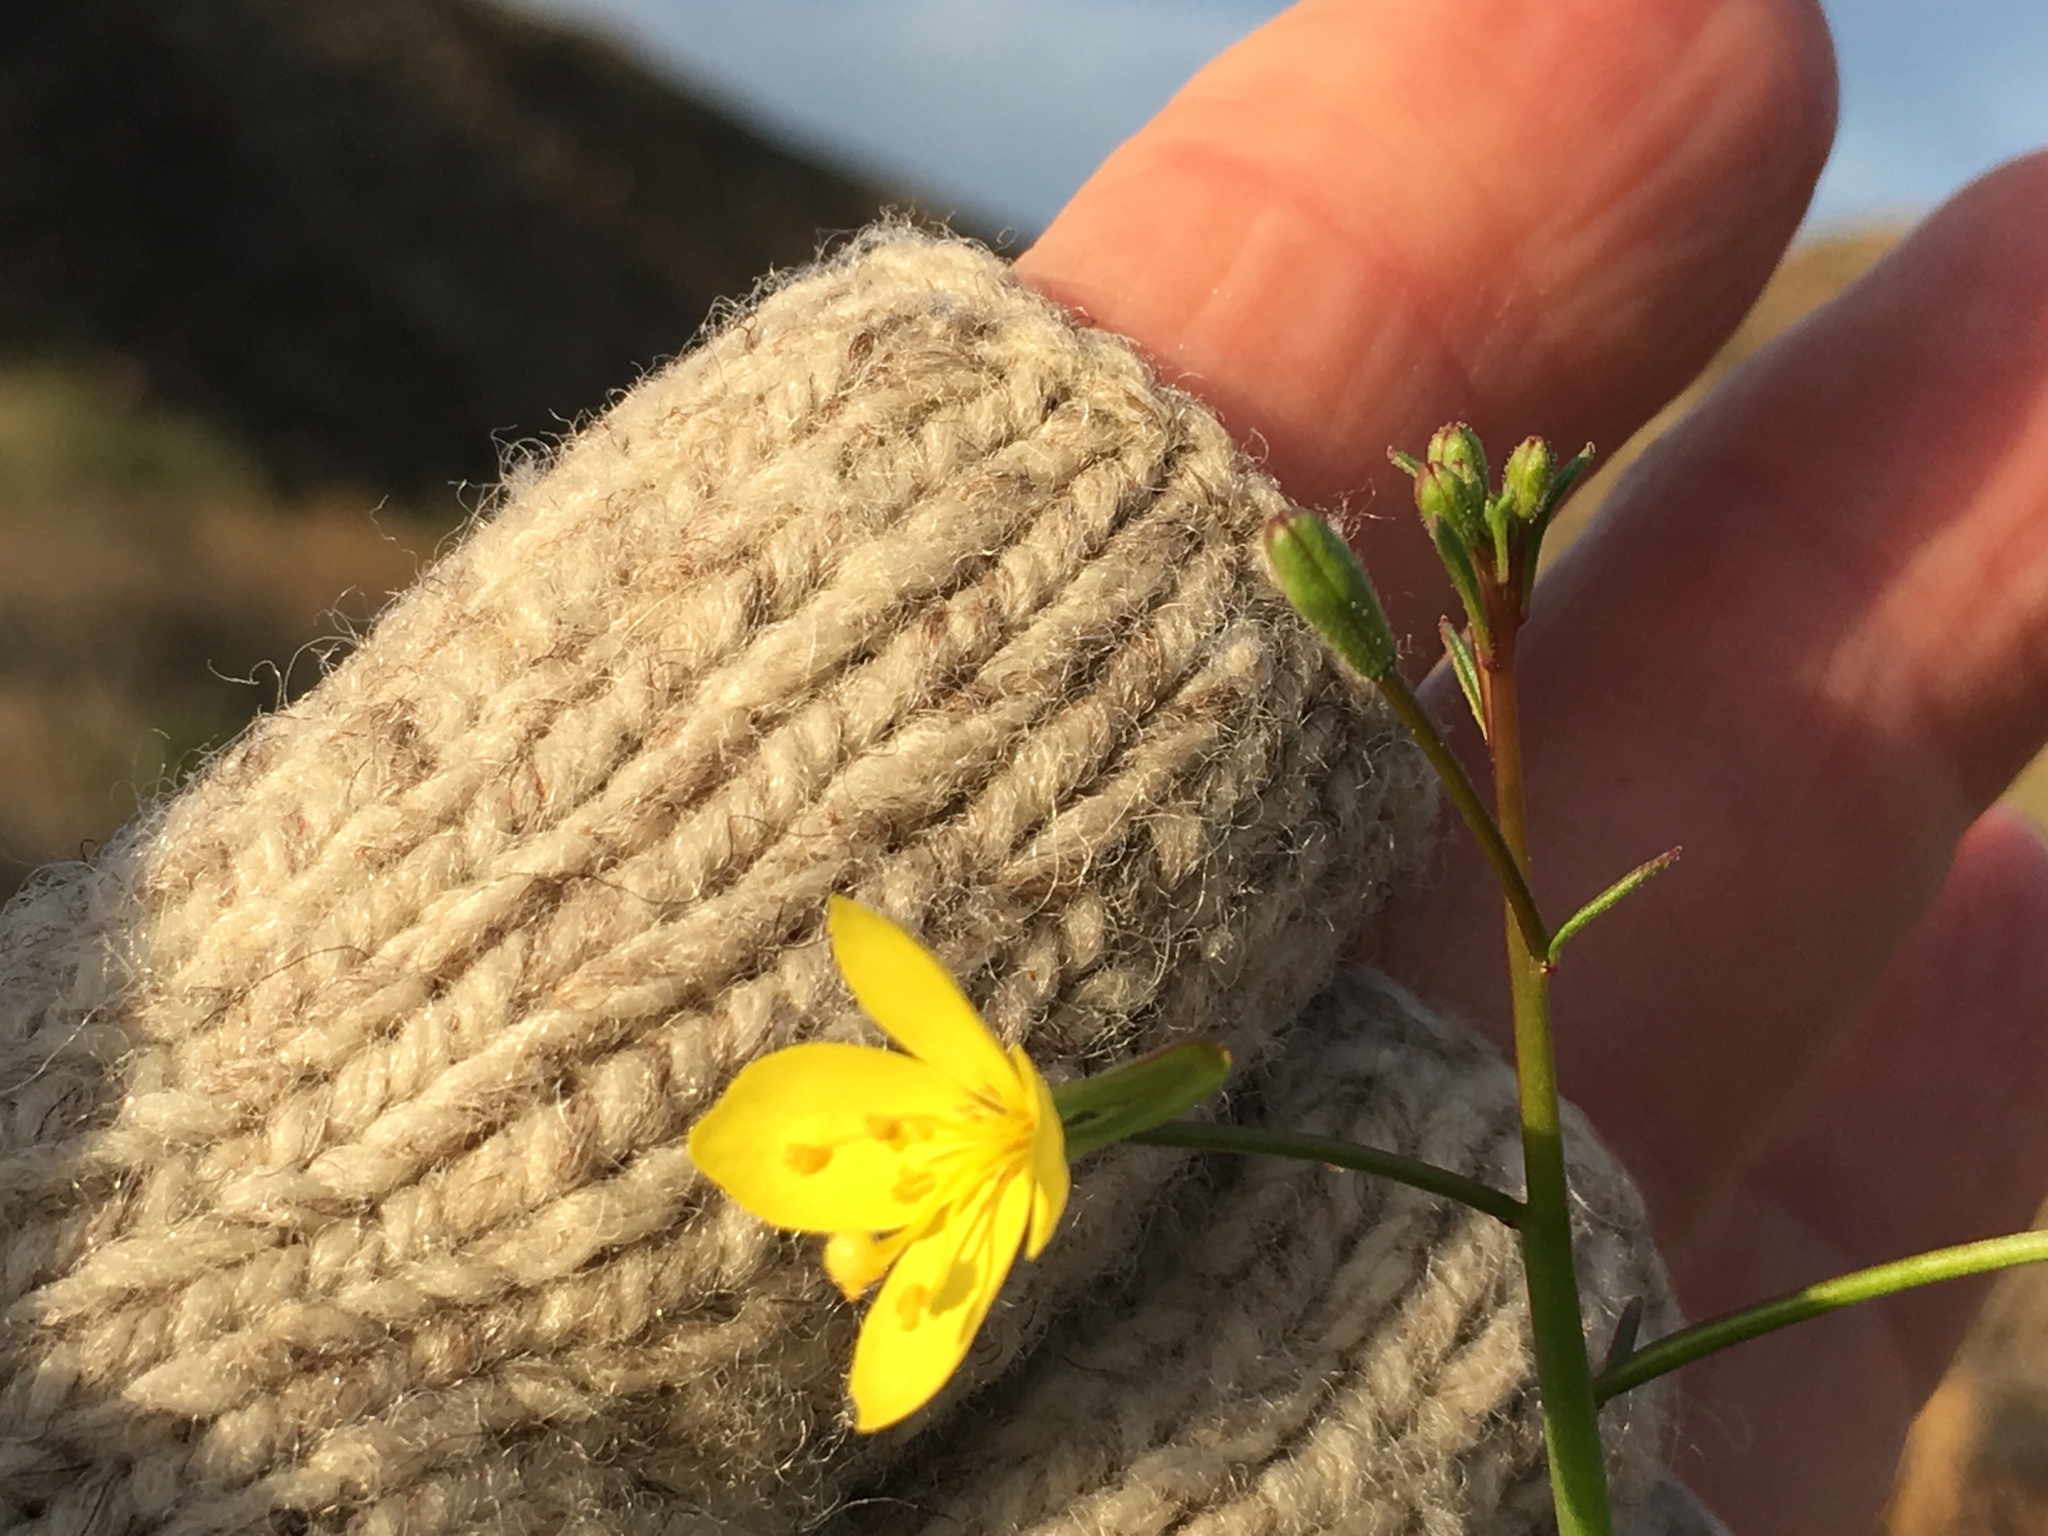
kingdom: Plantae
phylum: Tracheophyta
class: Magnoliopsida
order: Myrtales
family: Onagraceae
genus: Eulobus
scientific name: Eulobus californicus
